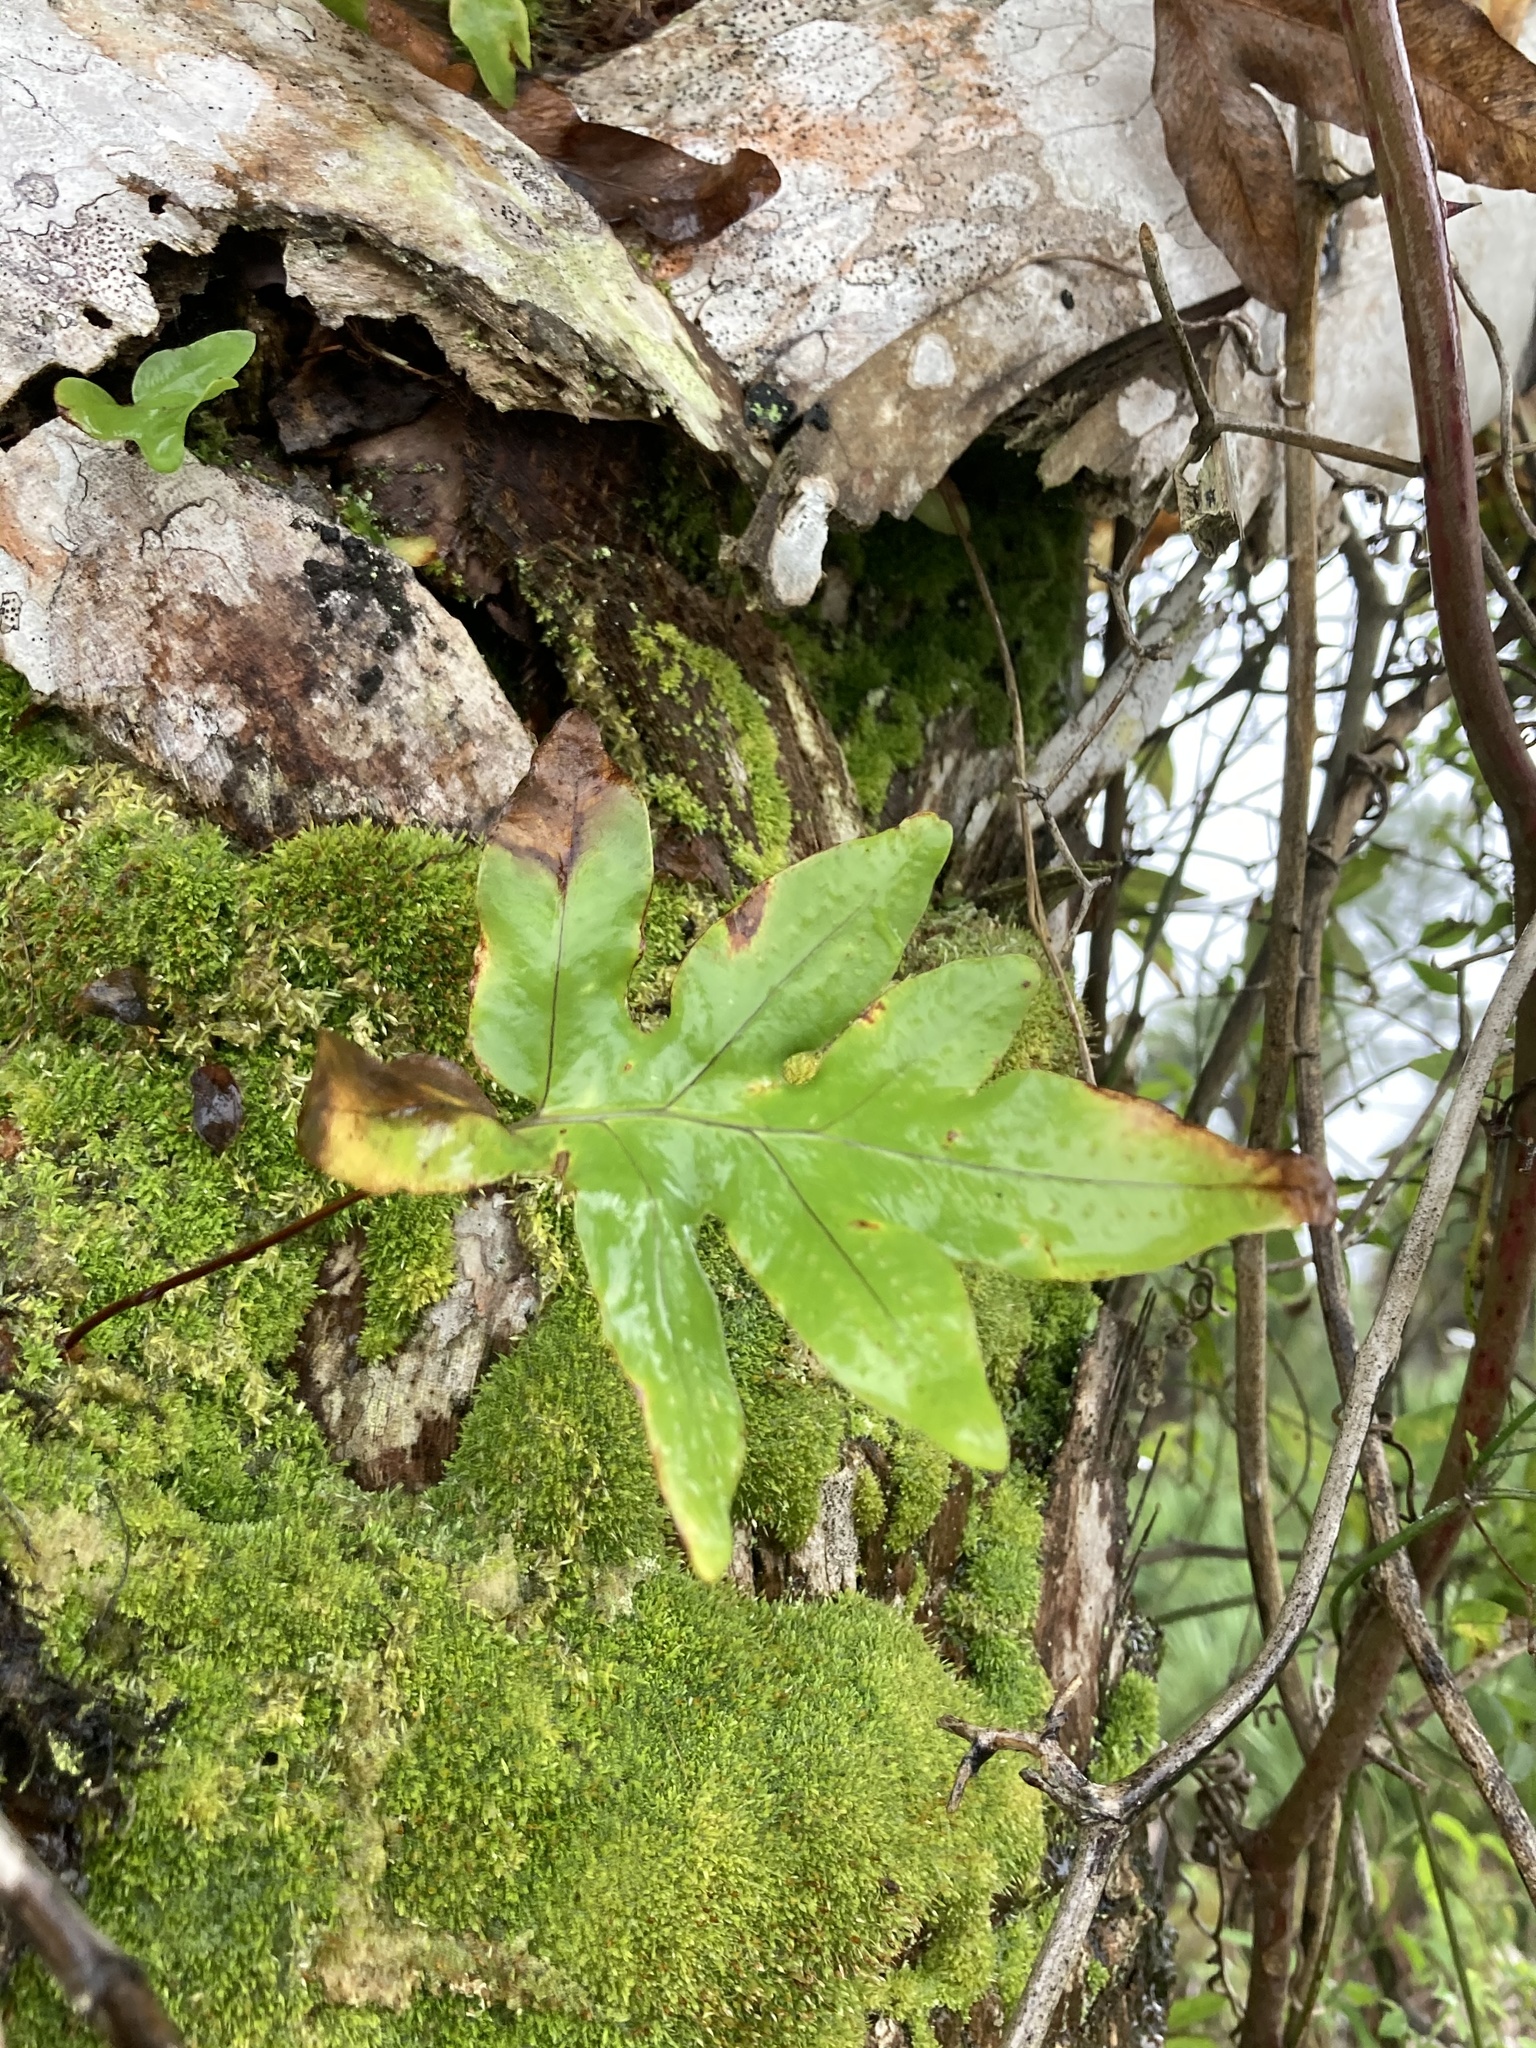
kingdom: Plantae
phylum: Tracheophyta
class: Polypodiopsida
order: Polypodiales
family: Polypodiaceae
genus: Phlebodium
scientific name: Phlebodium aureum
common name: Gold-foot fern
